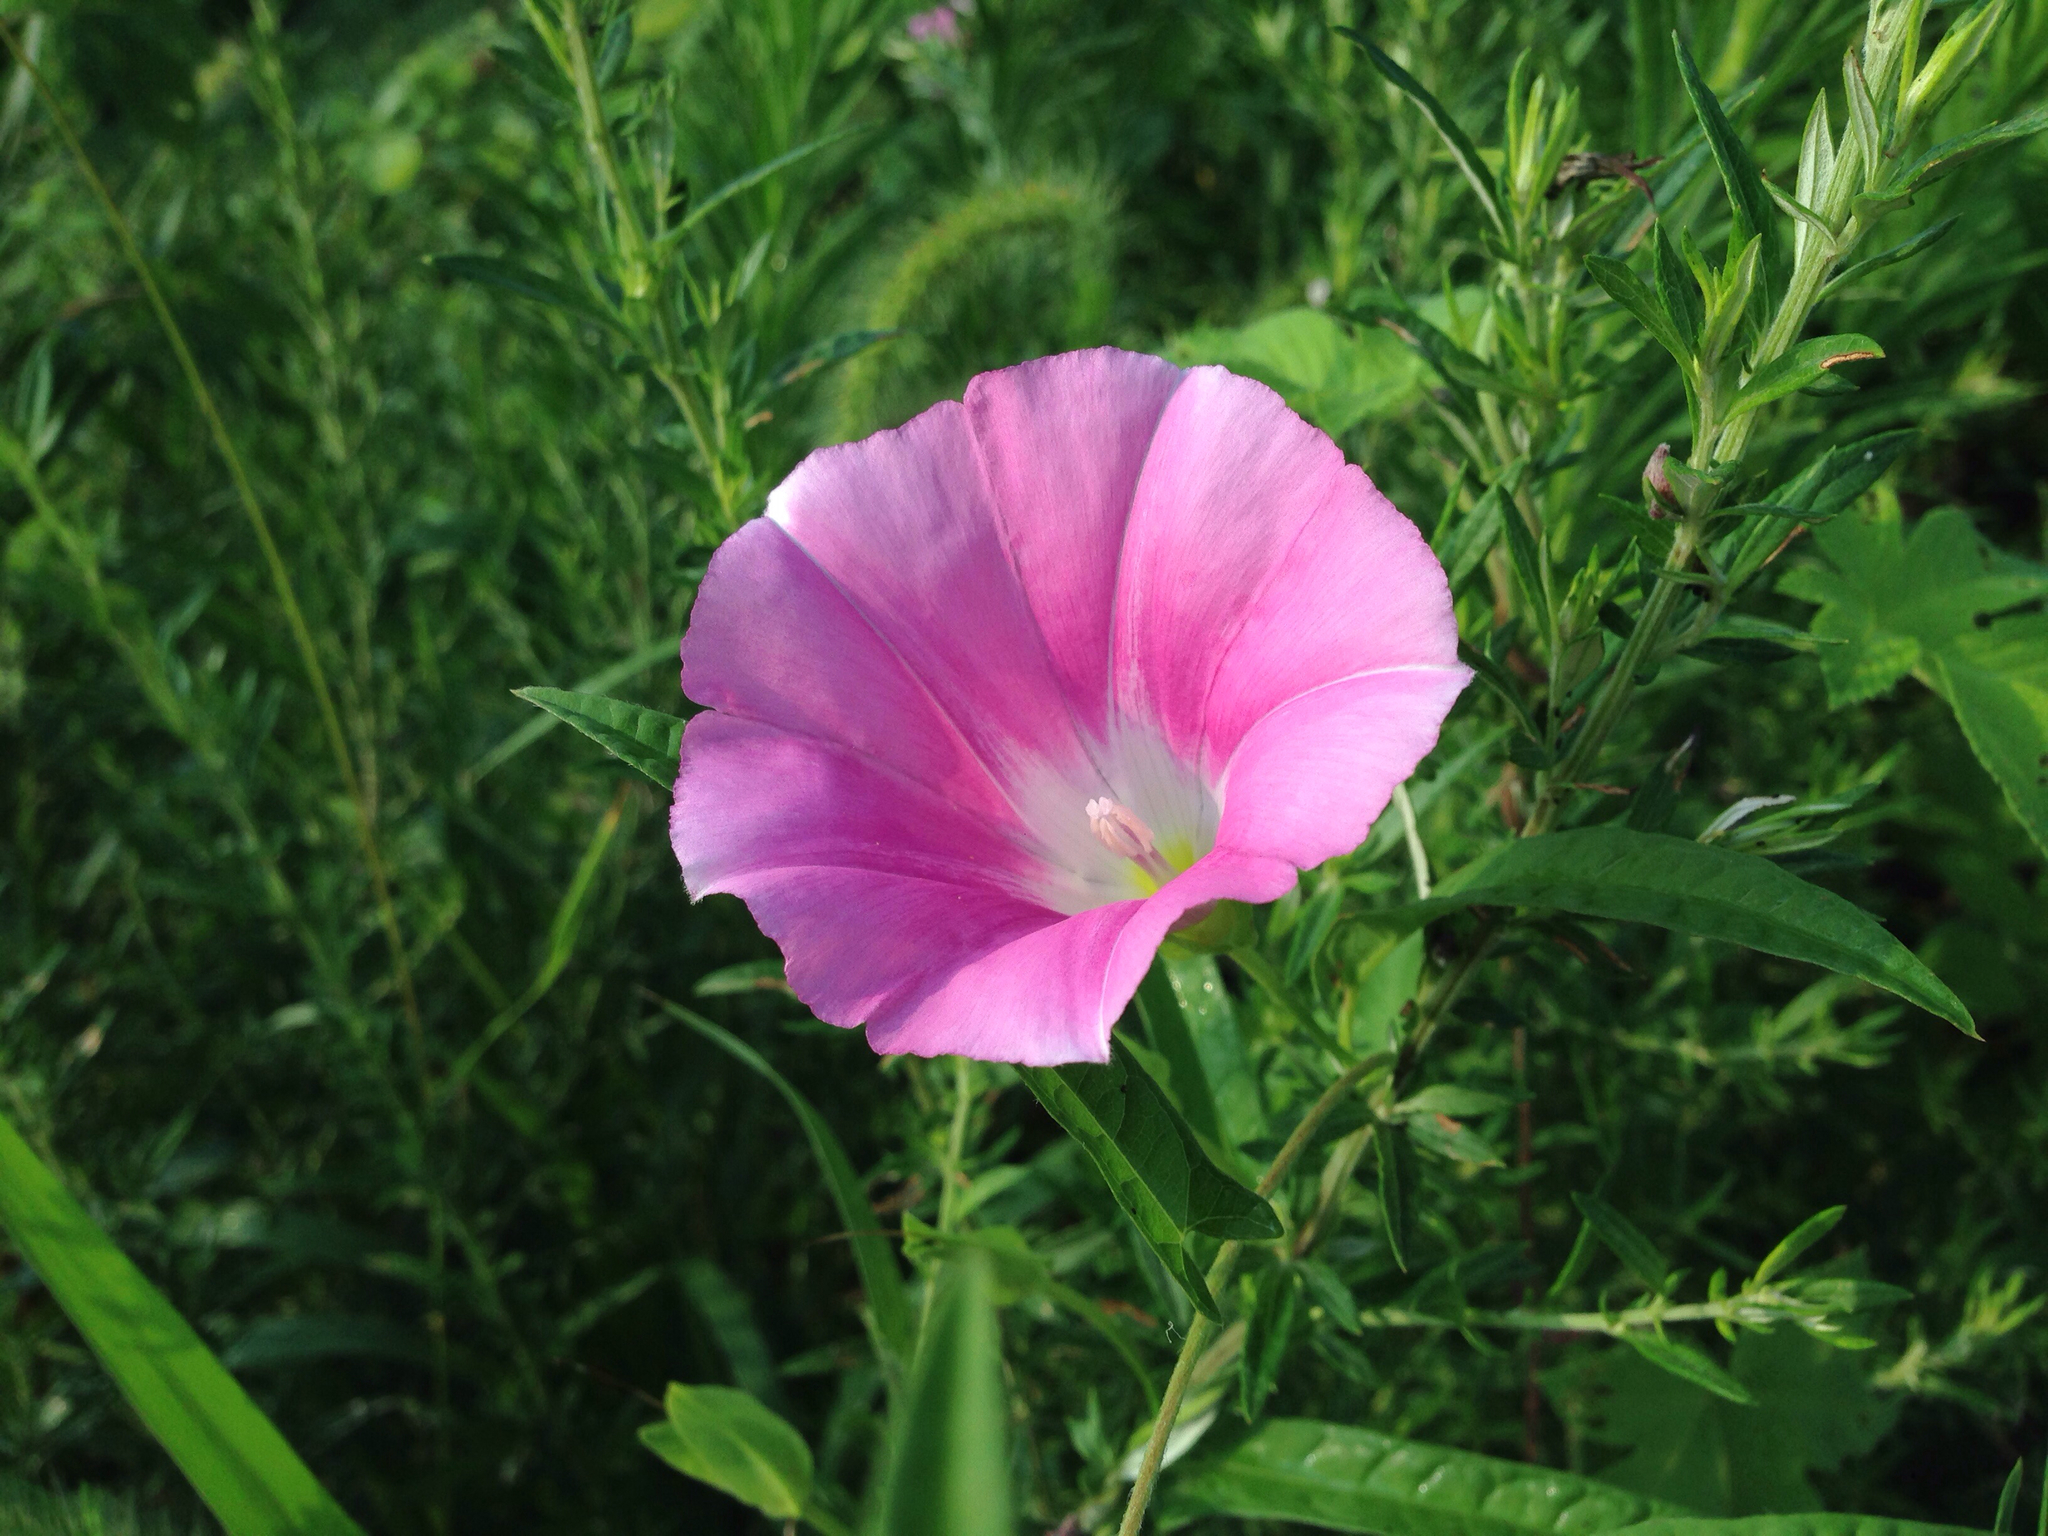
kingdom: Plantae
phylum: Tracheophyta
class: Magnoliopsida
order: Solanales
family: Convolvulaceae
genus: Calystegia
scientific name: Calystegia pubescens
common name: Japanese bindweed
